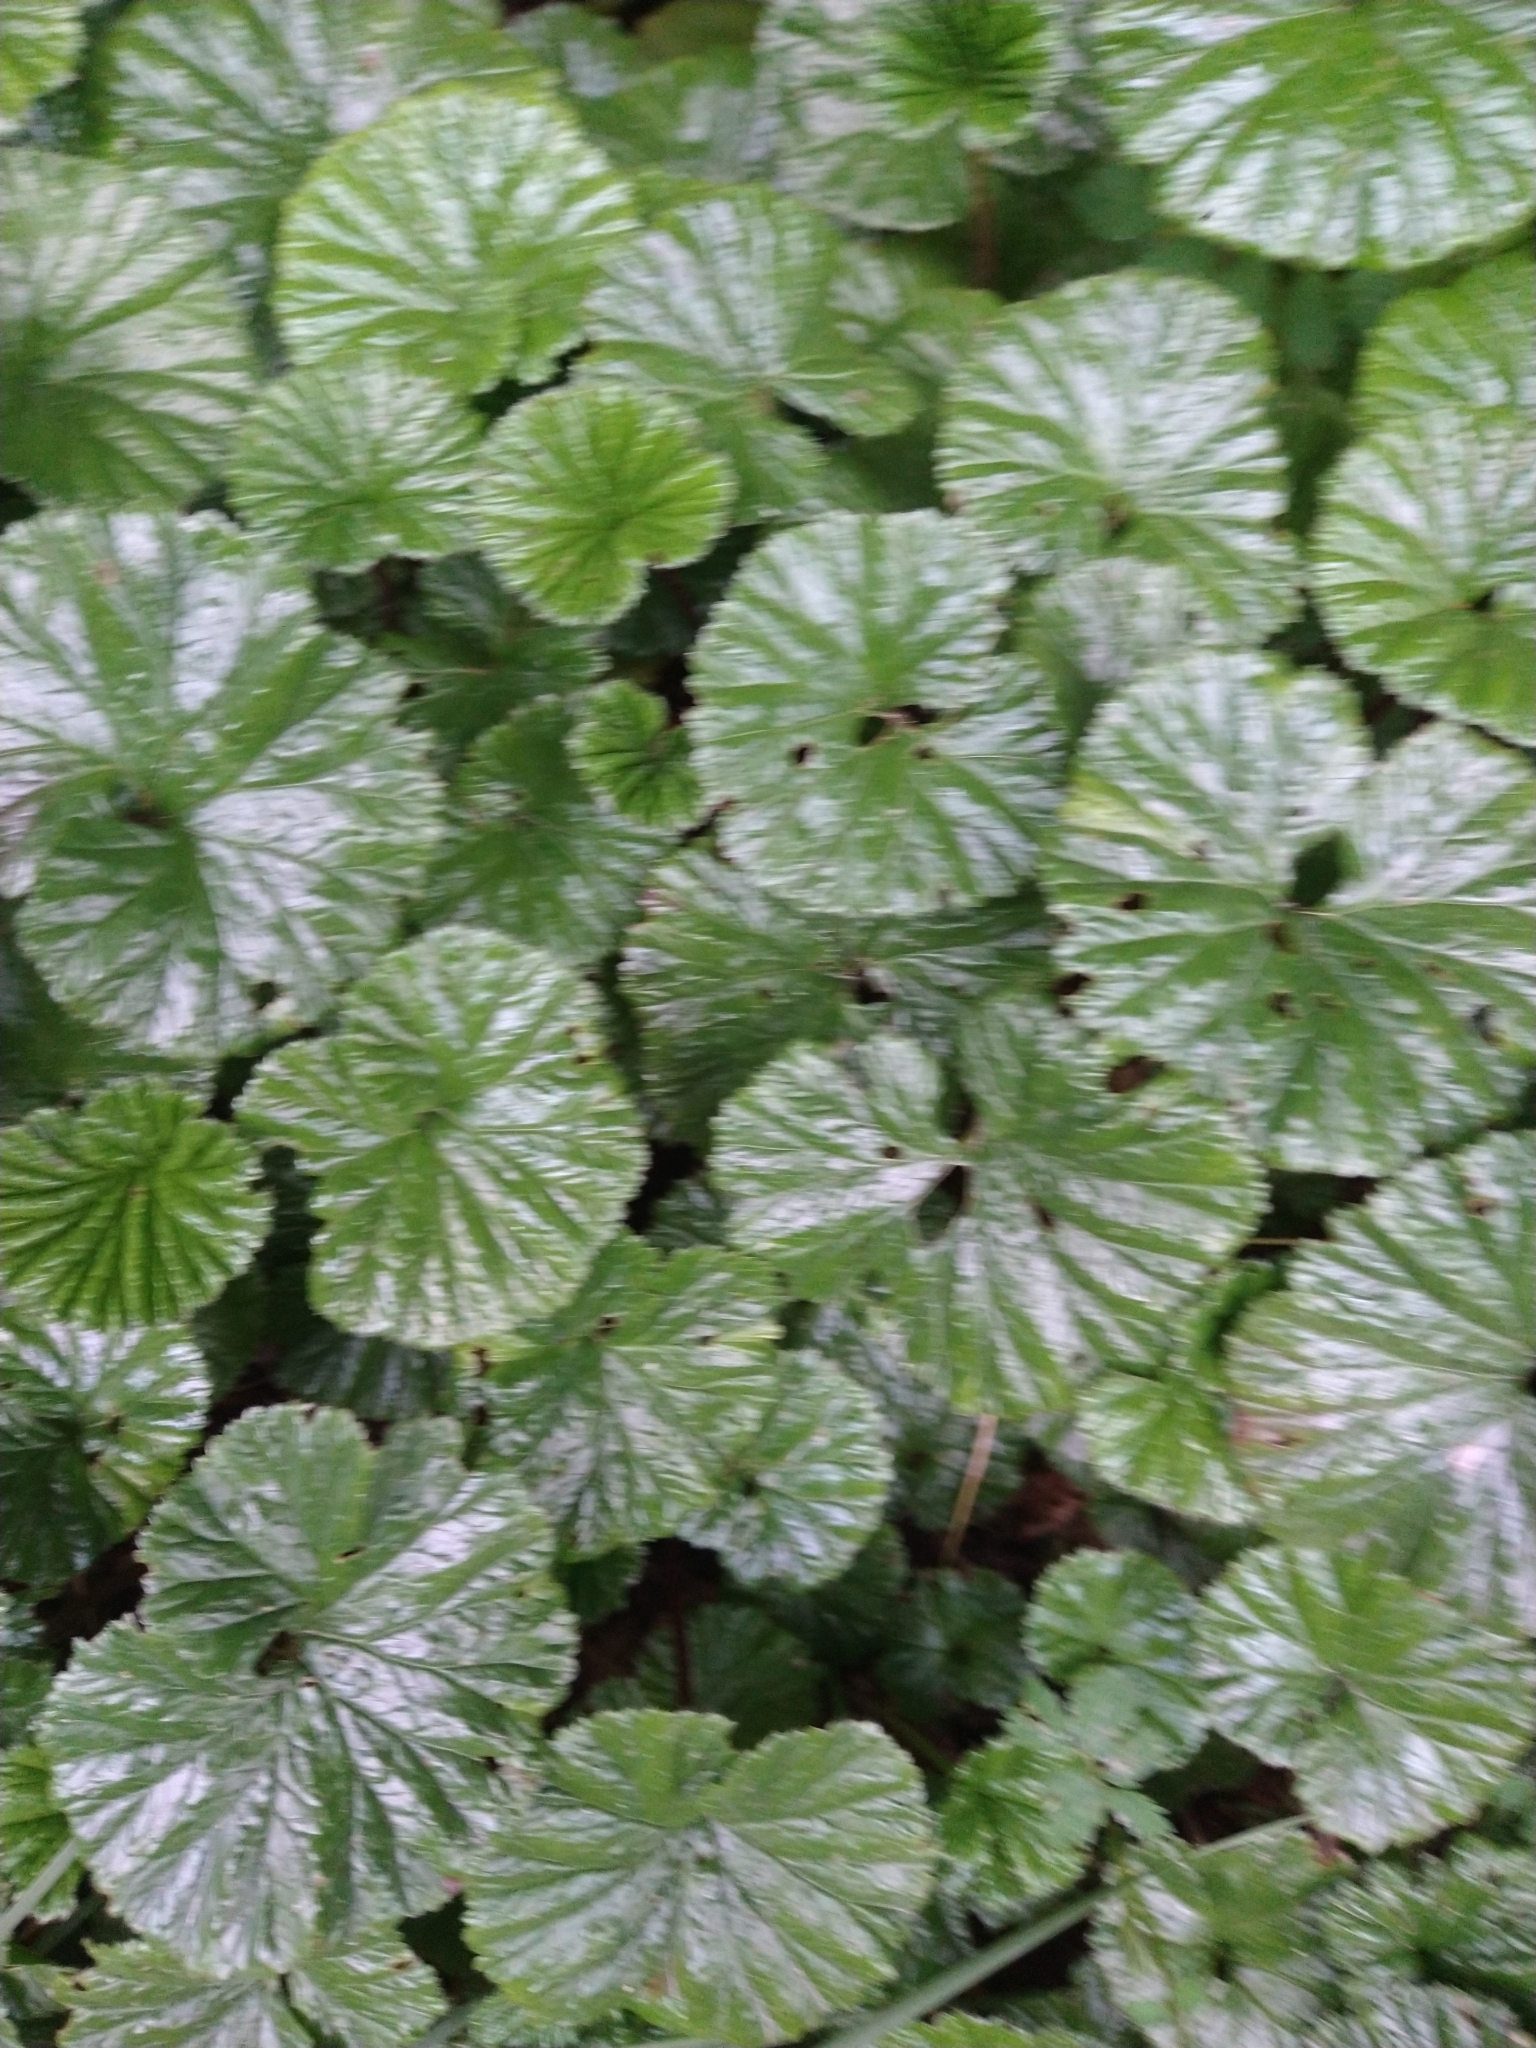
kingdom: Plantae
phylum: Tracheophyta
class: Magnoliopsida
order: Gunnerales
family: Gunneraceae
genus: Gunnera
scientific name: Gunnera magellanica
